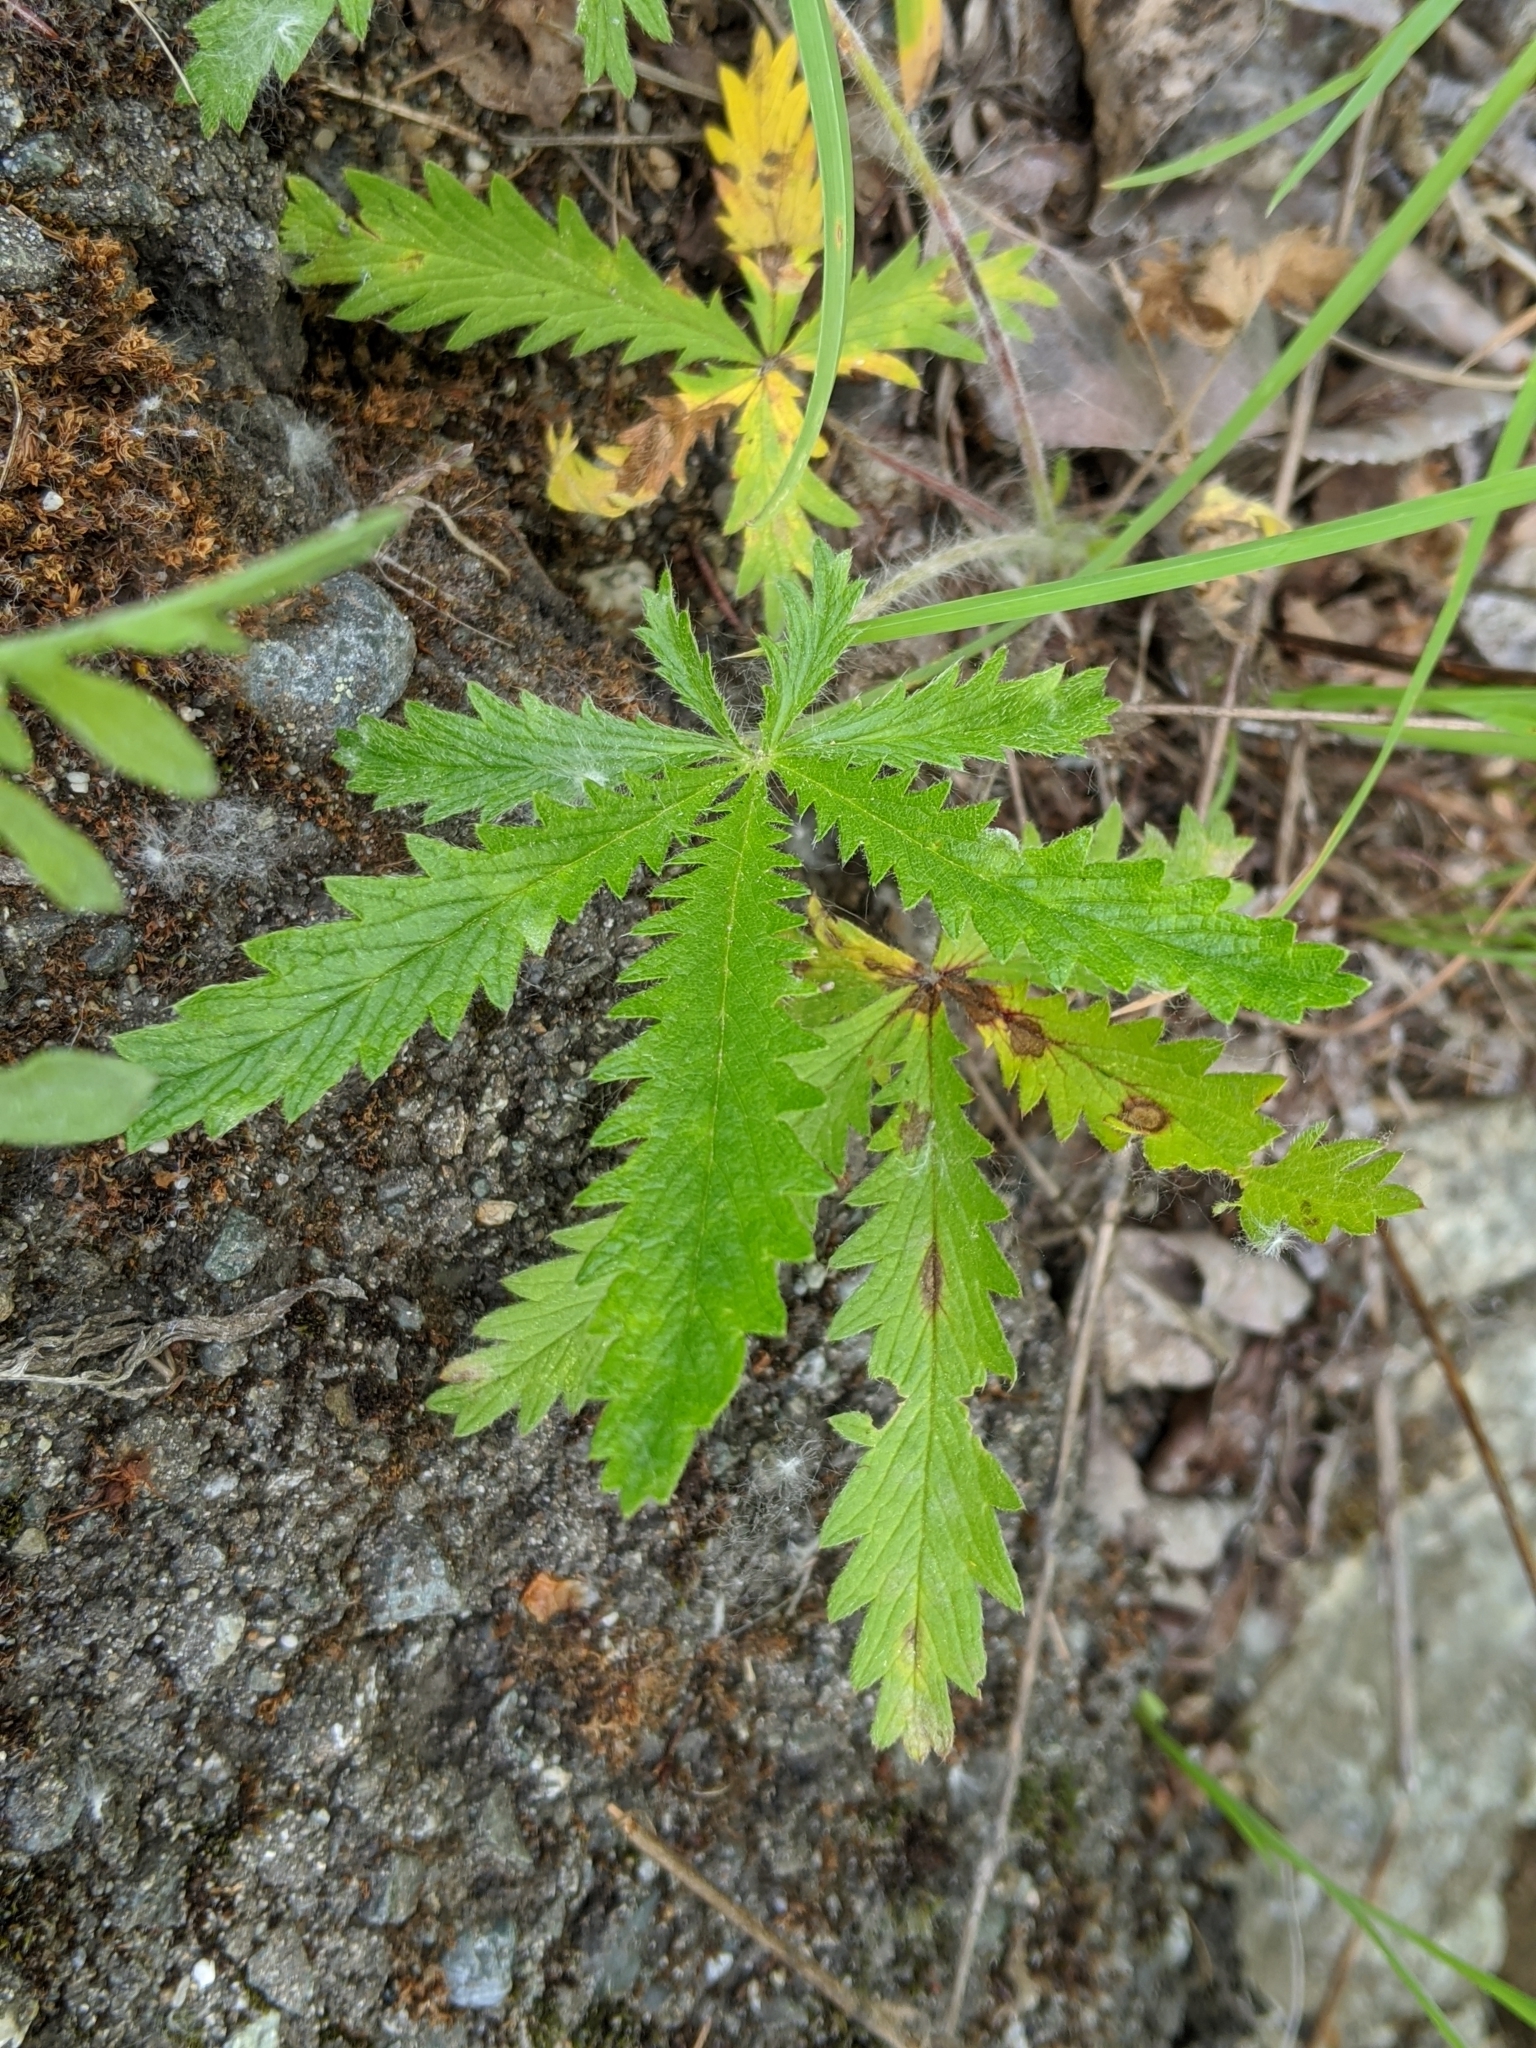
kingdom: Plantae
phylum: Tracheophyta
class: Magnoliopsida
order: Rosales
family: Rosaceae
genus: Potentilla
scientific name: Potentilla recta
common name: Sulphur cinquefoil
